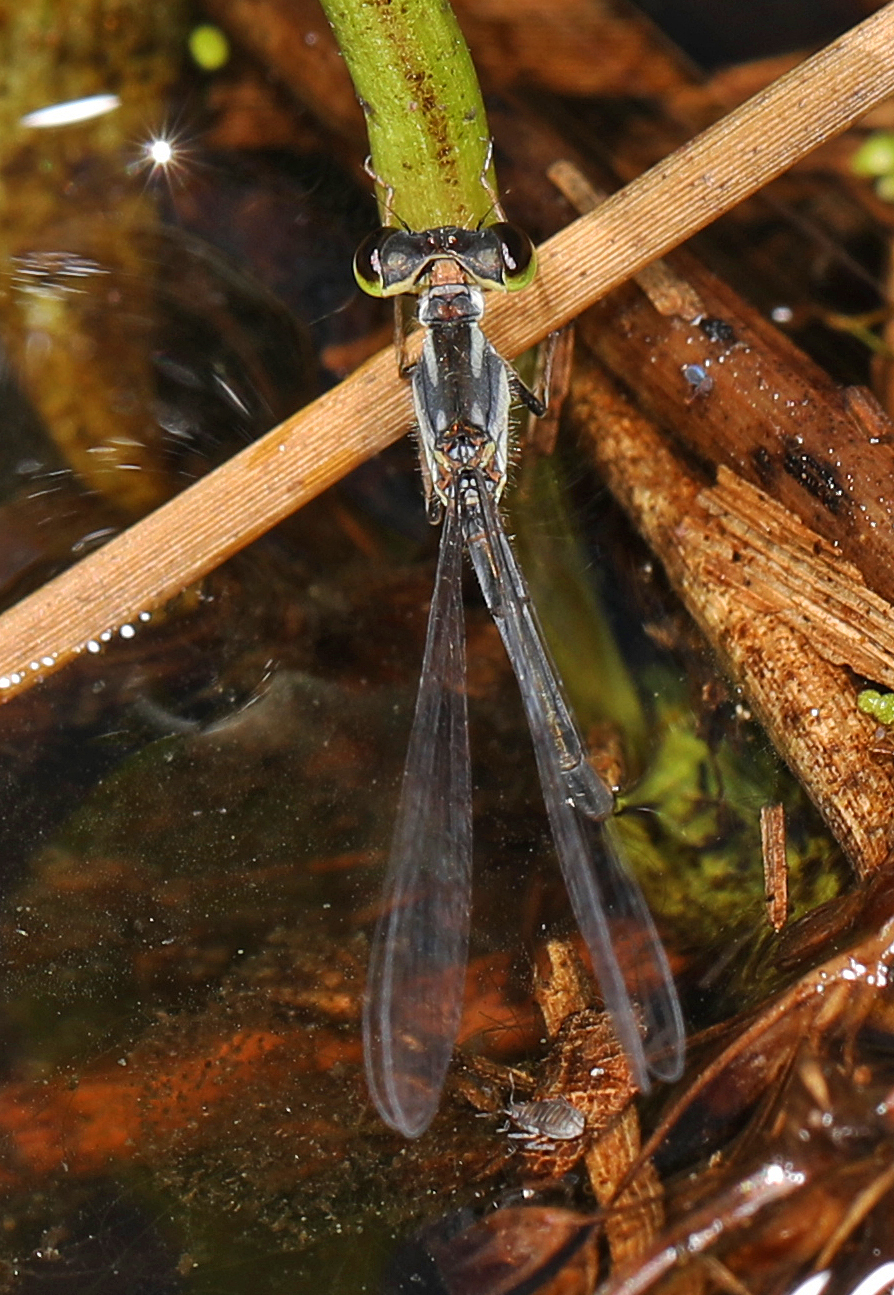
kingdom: Animalia
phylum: Arthropoda
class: Insecta
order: Odonata
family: Coenagrionidae
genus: Ischnura
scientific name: Ischnura posita
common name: Fragile forktail
